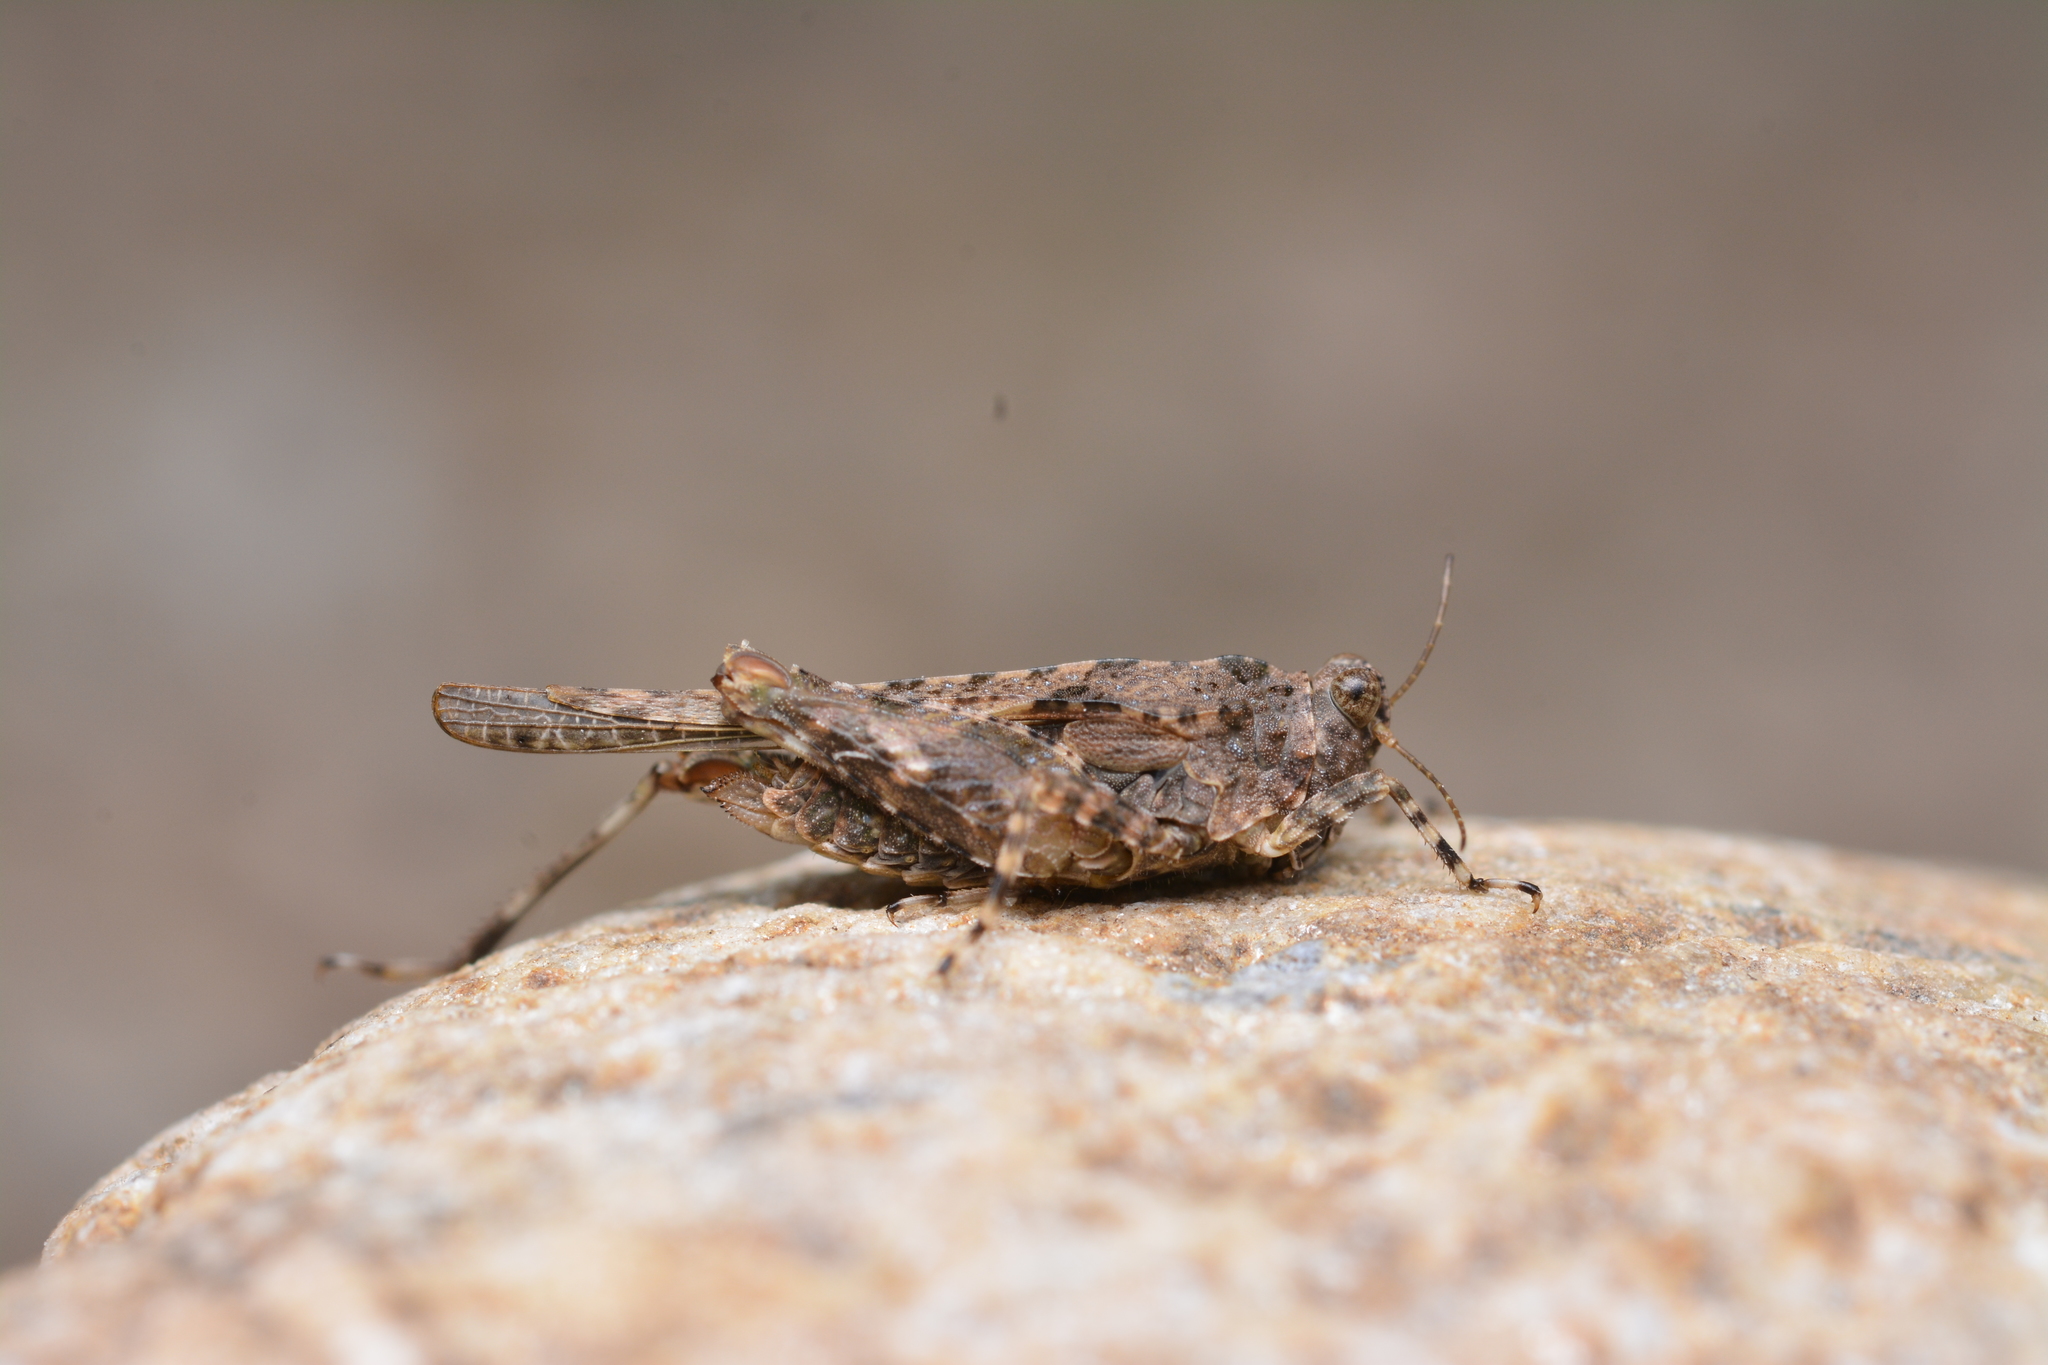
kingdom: Animalia
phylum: Arthropoda
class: Insecta
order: Orthoptera
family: Tetrigidae
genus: Paratettix
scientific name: Paratettix meridionalis
